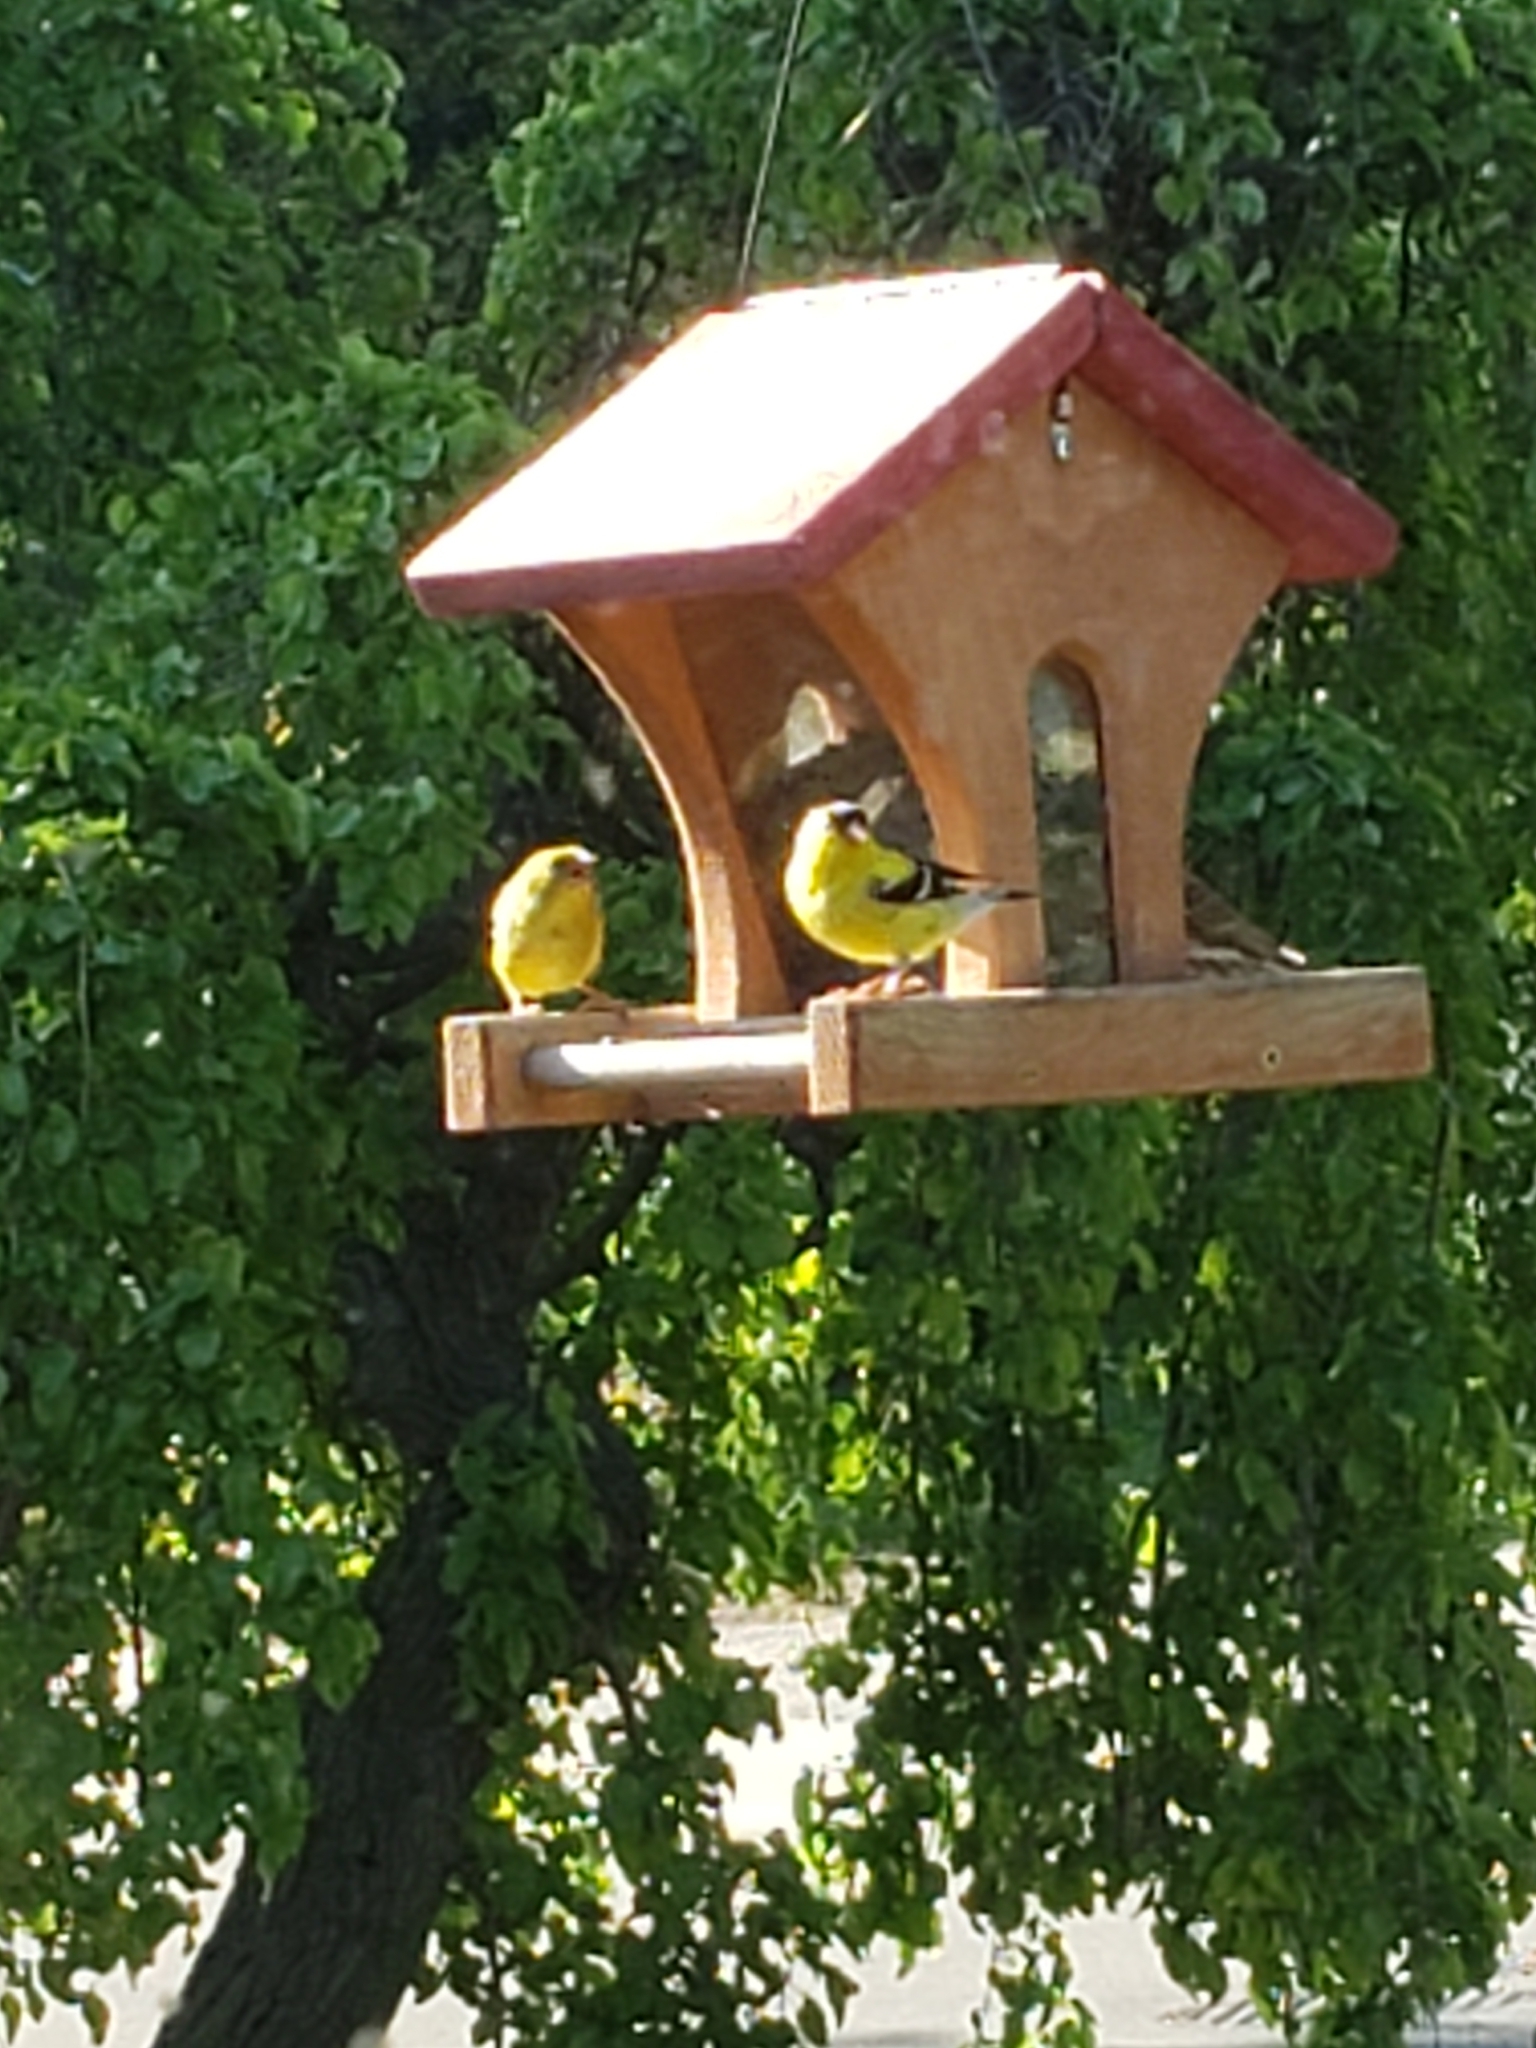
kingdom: Animalia
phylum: Chordata
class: Aves
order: Passeriformes
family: Fringillidae
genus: Spinus
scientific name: Spinus tristis
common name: American goldfinch
